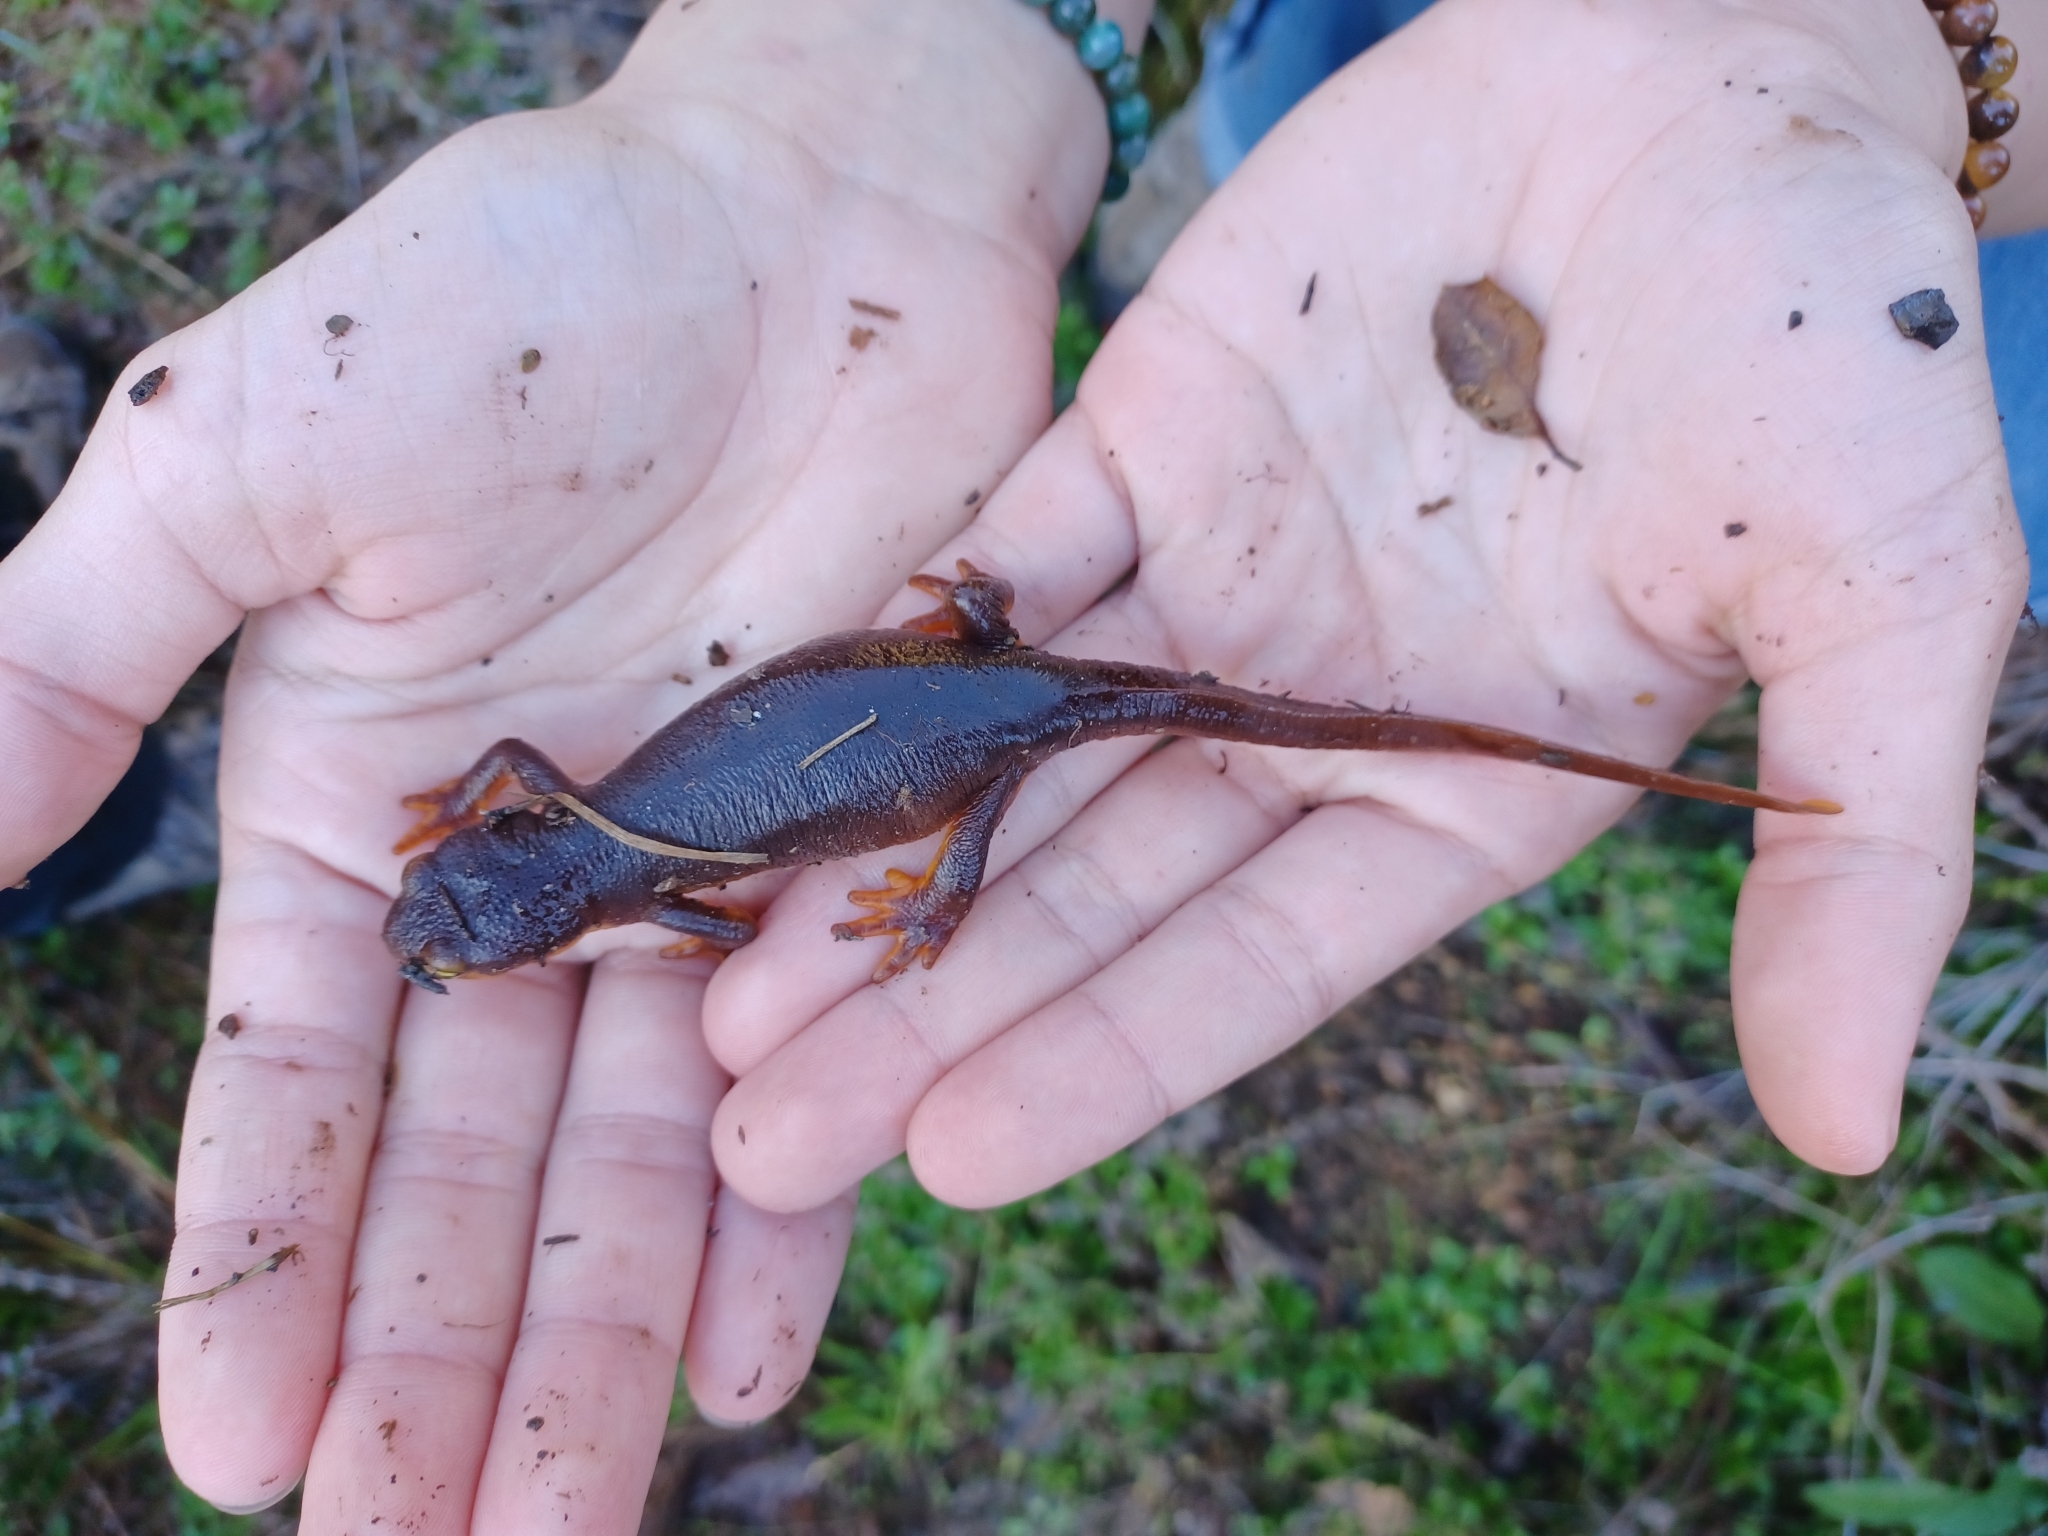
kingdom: Animalia
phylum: Chordata
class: Amphibia
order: Caudata
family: Salamandridae
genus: Taricha
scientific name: Taricha torosa
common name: California newt
